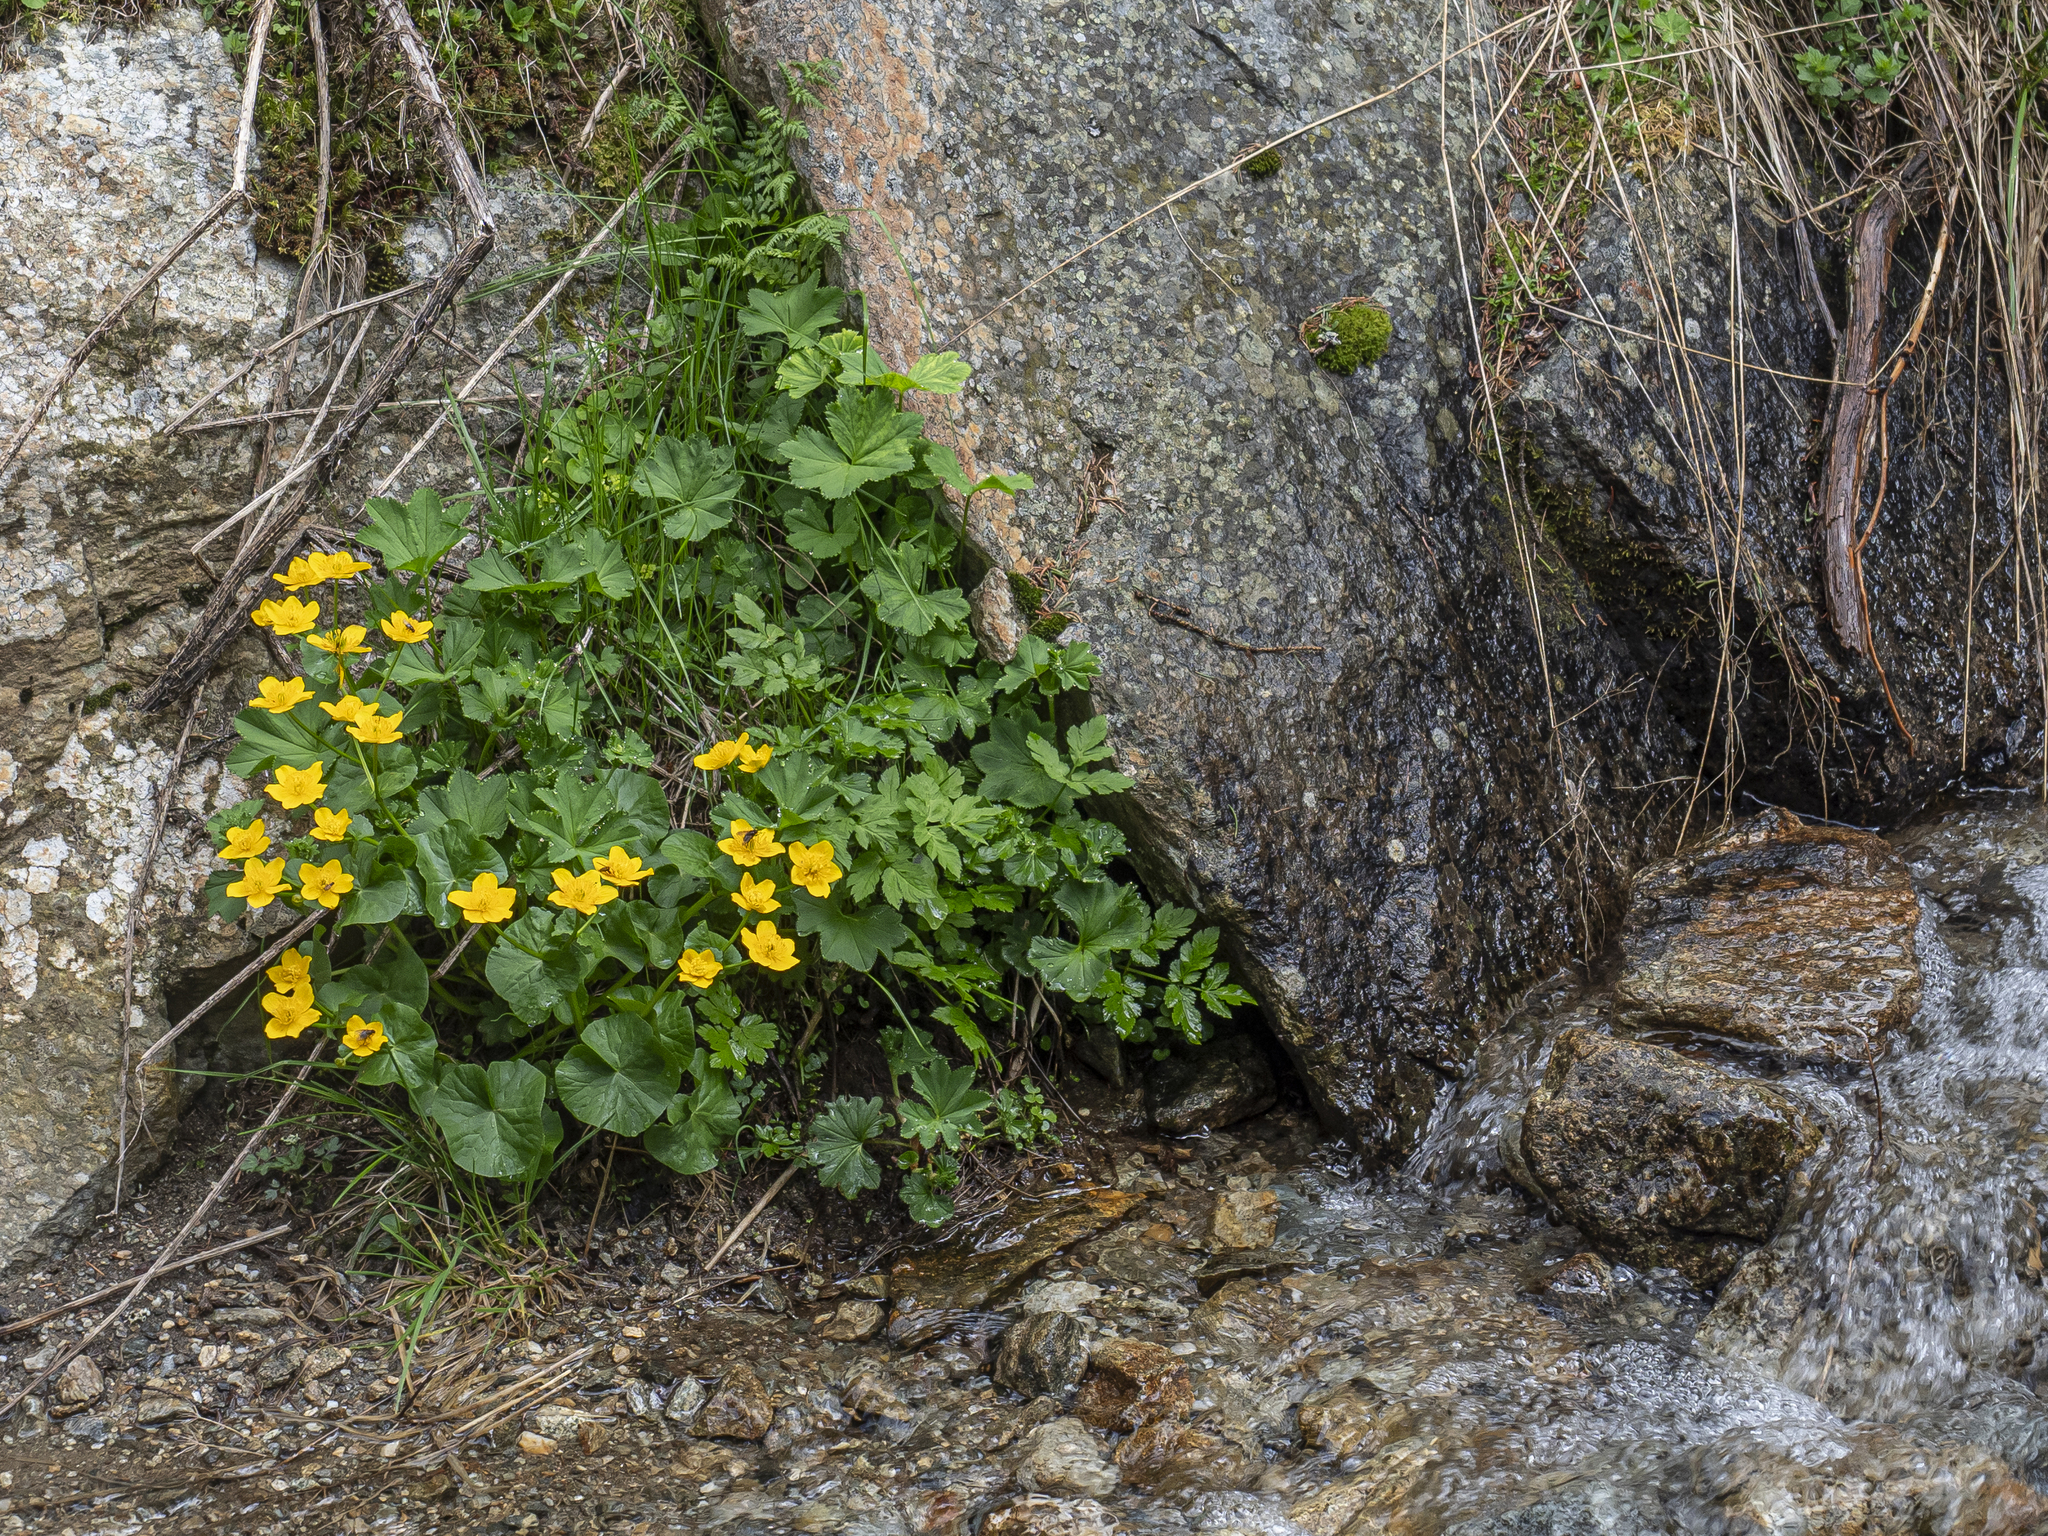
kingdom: Plantae
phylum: Tracheophyta
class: Magnoliopsida
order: Ranunculales
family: Ranunculaceae
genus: Caltha
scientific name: Caltha palustris
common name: Marsh marigold
